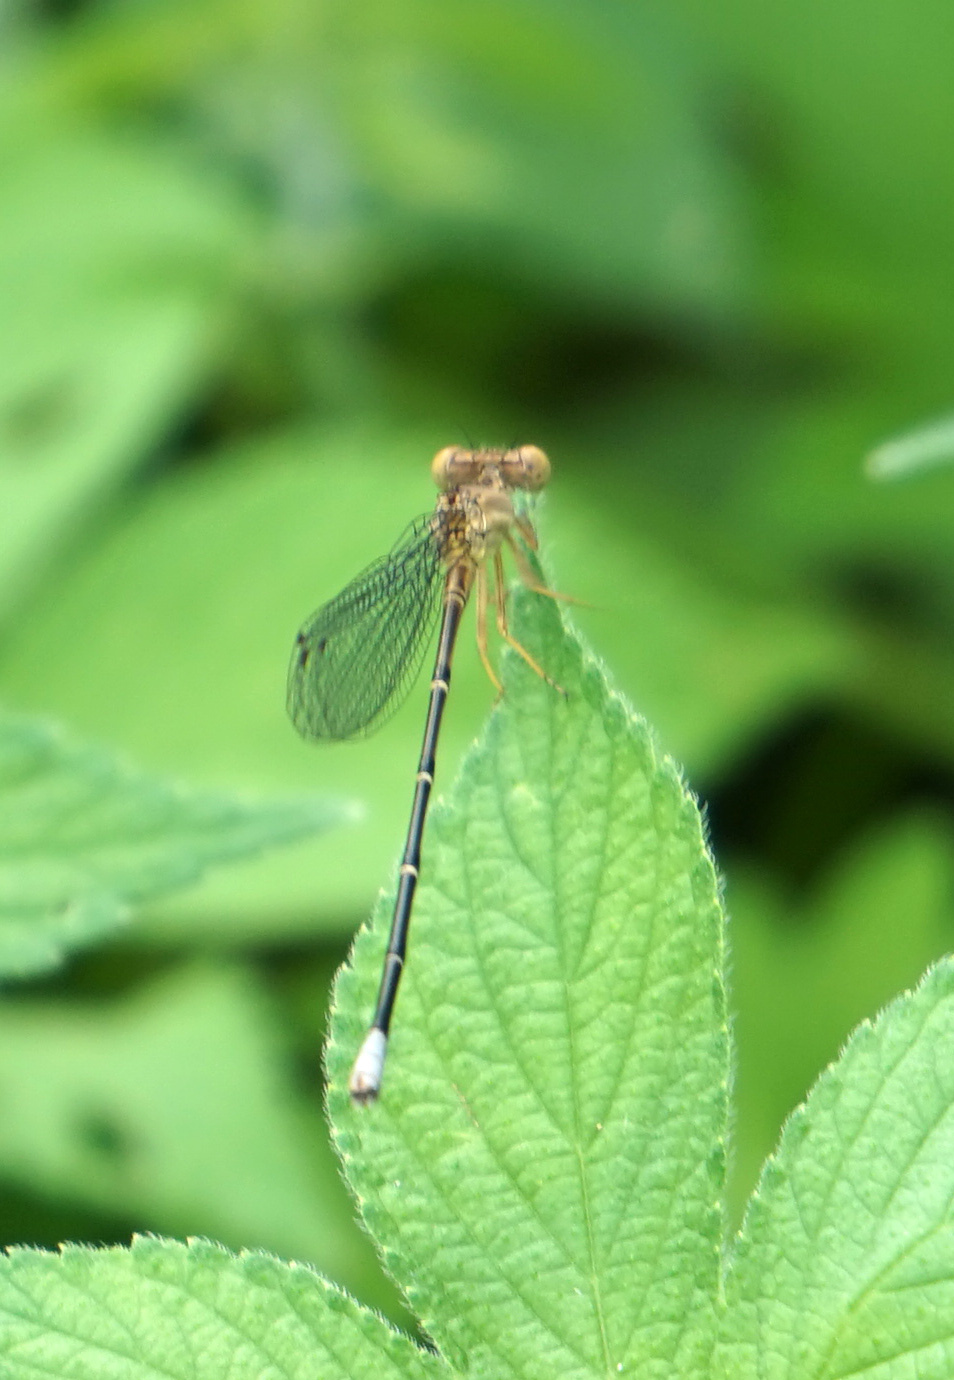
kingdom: Animalia
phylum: Arthropoda
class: Insecta
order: Odonata
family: Coenagrionidae
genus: Argia
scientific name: Argia apicalis
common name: Blue-fronted dancer
